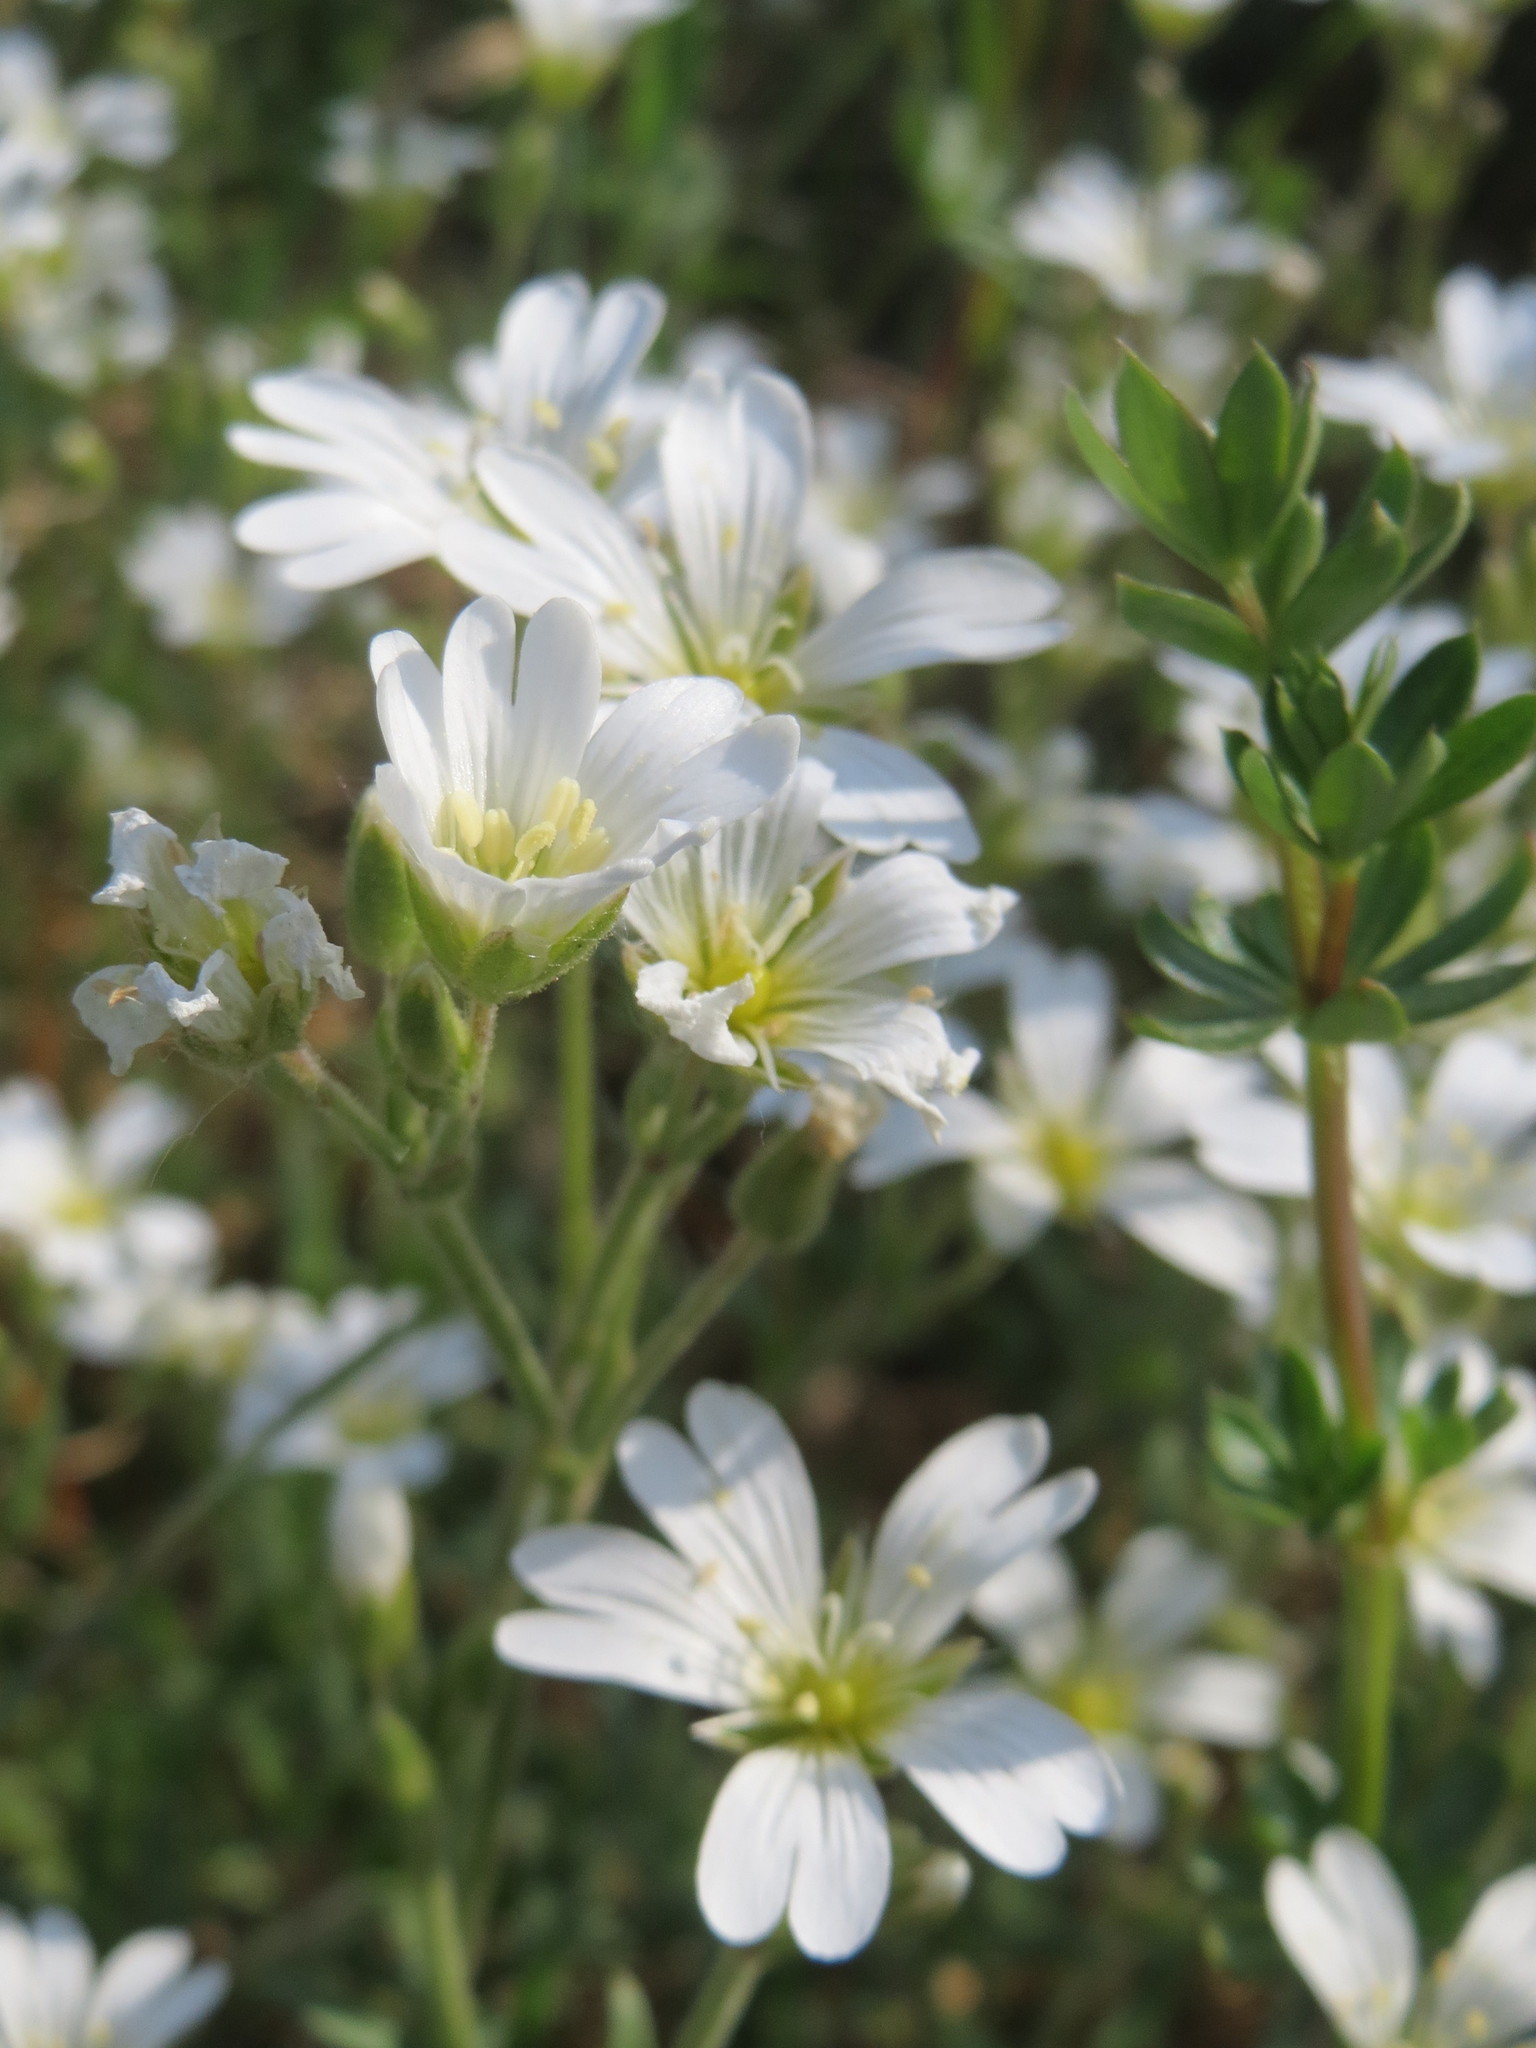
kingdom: Plantae
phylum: Tracheophyta
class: Magnoliopsida
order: Caryophyllales
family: Caryophyllaceae
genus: Cerastium
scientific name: Cerastium arvense
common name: Field mouse-ear
